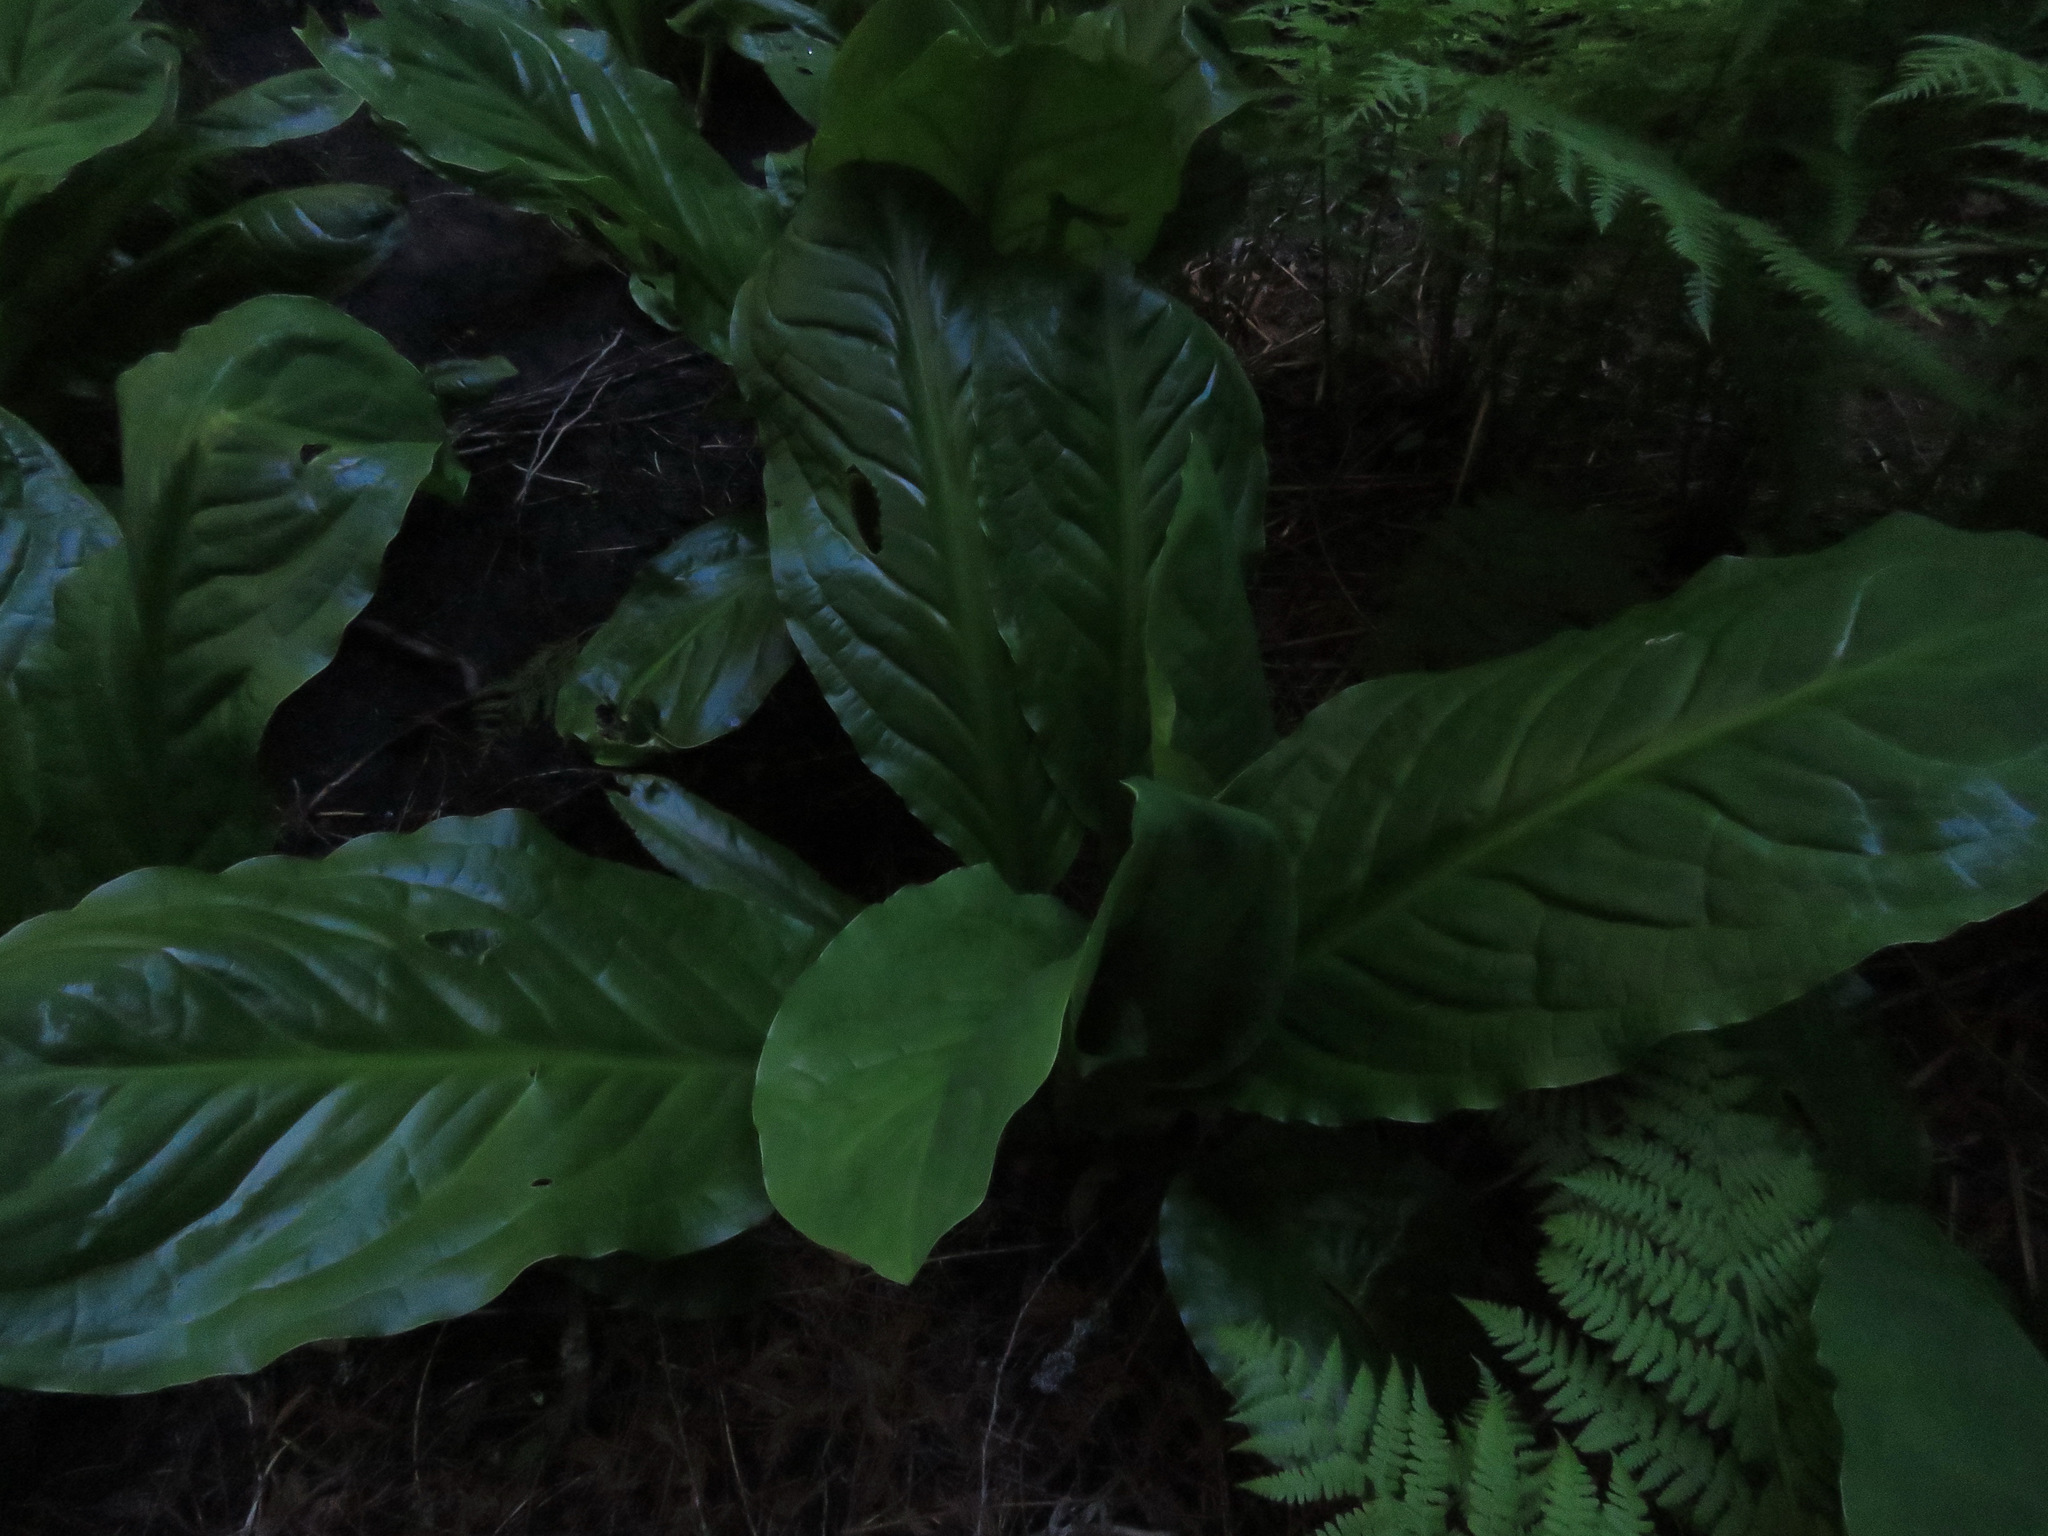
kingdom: Plantae
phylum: Tracheophyta
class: Liliopsida
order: Alismatales
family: Araceae
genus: Lysichiton
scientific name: Lysichiton americanus
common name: American skunk cabbage
